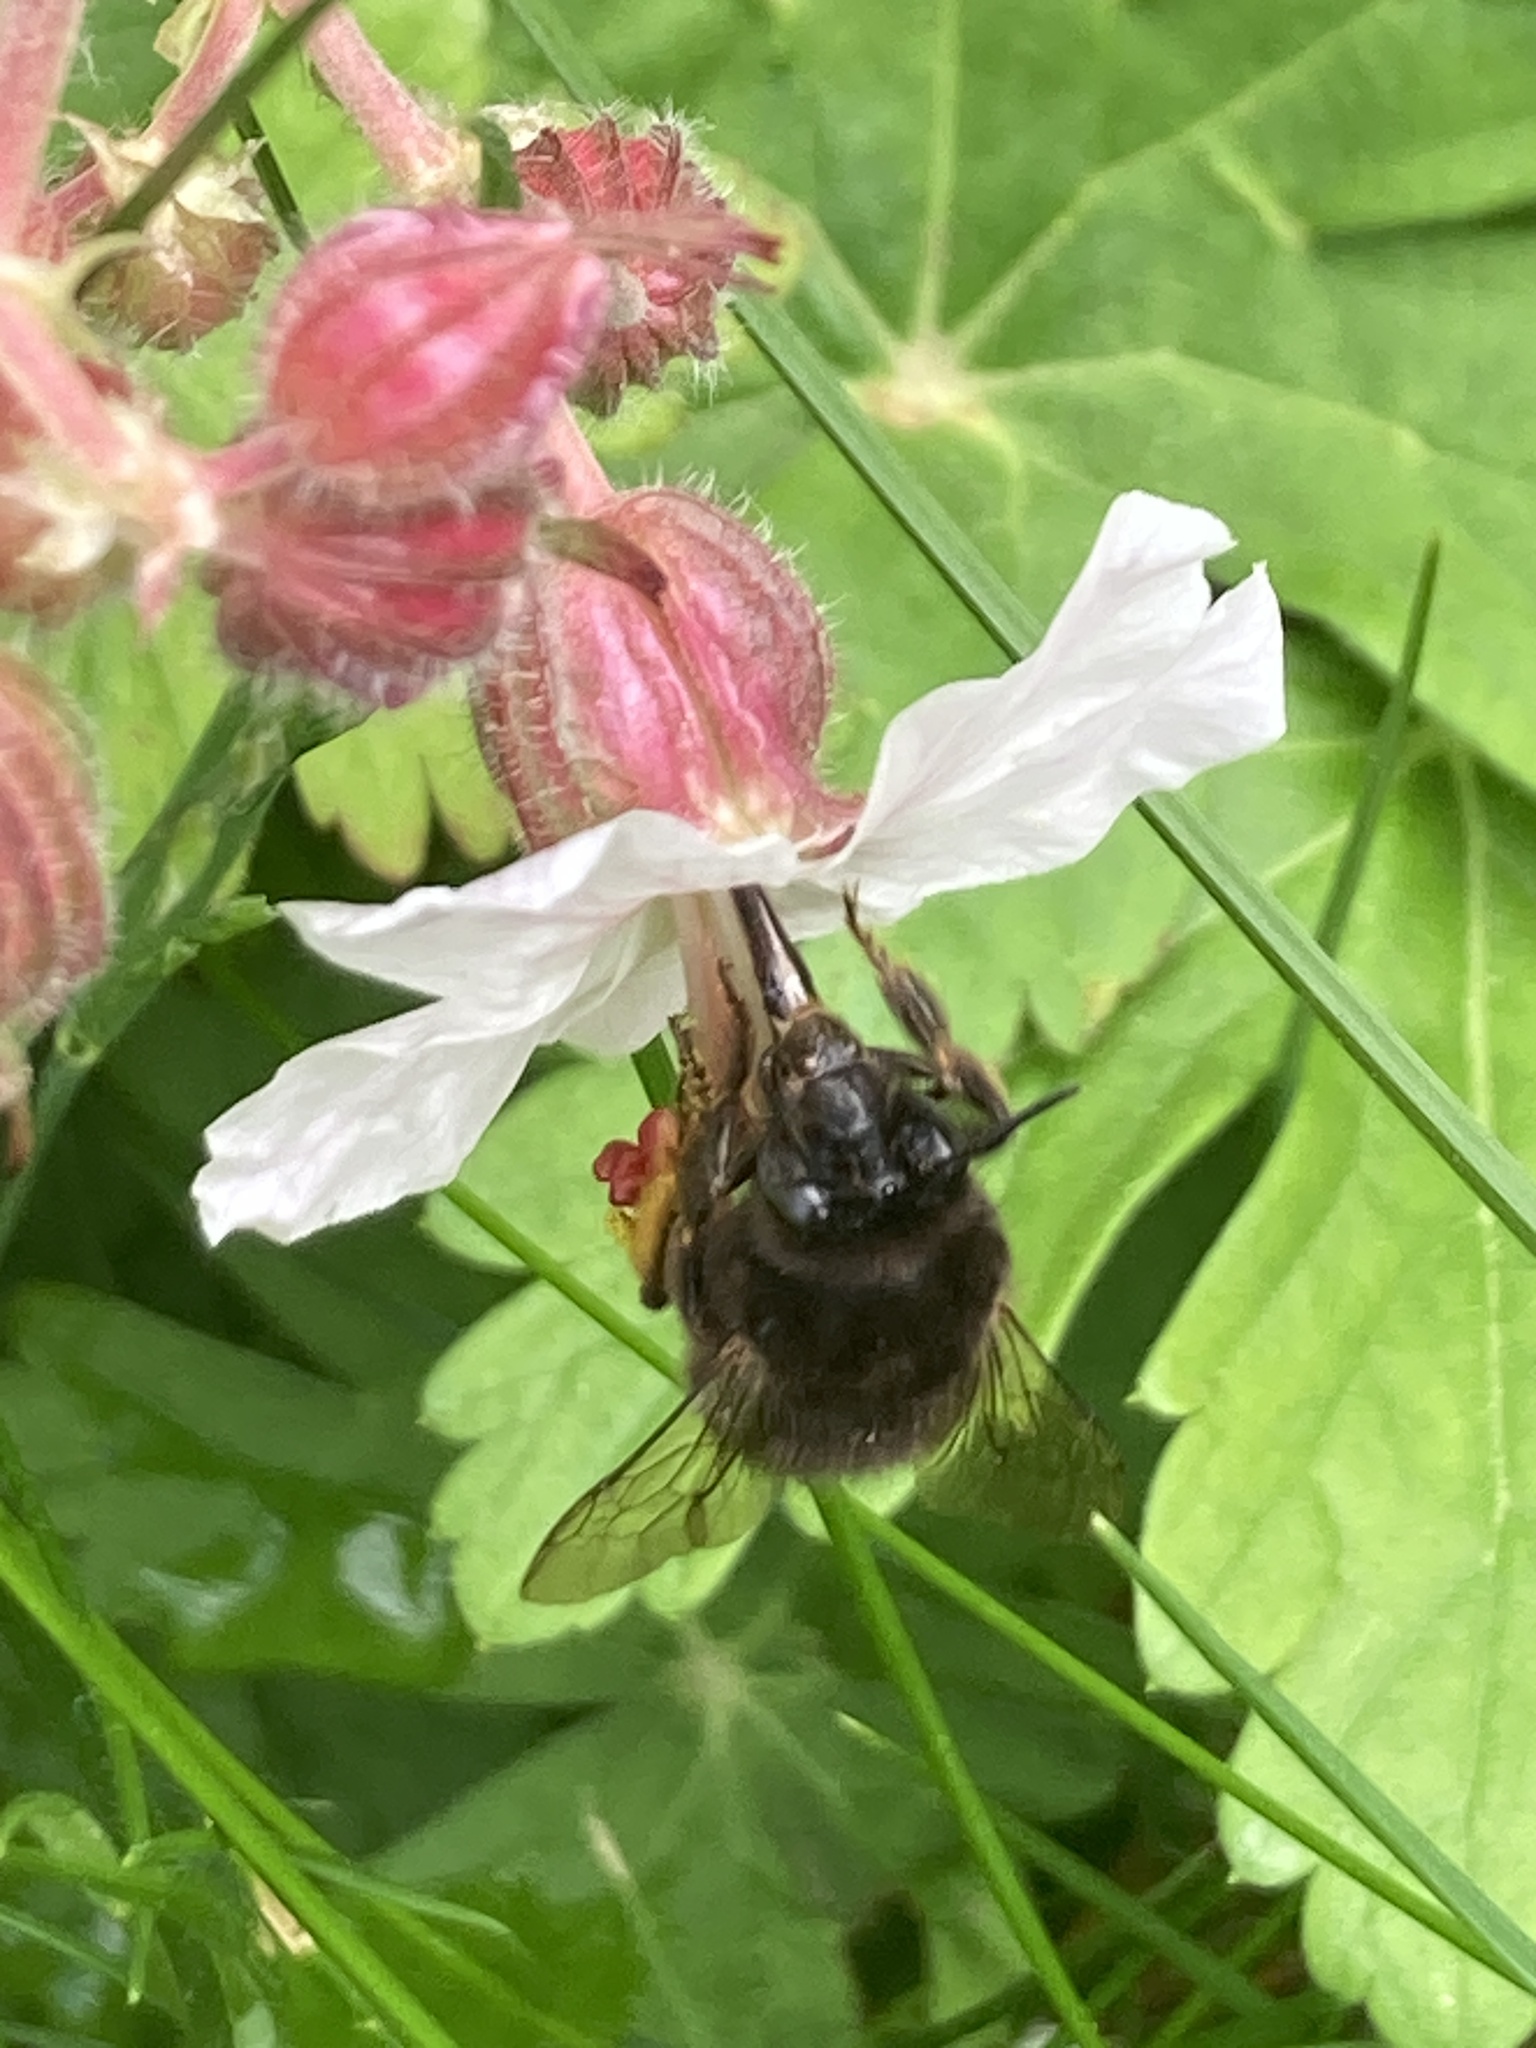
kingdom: Animalia
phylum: Arthropoda
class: Insecta
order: Hymenoptera
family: Apidae
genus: Anthophora
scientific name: Anthophora plumipes
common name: Hairy-footed flower bee
